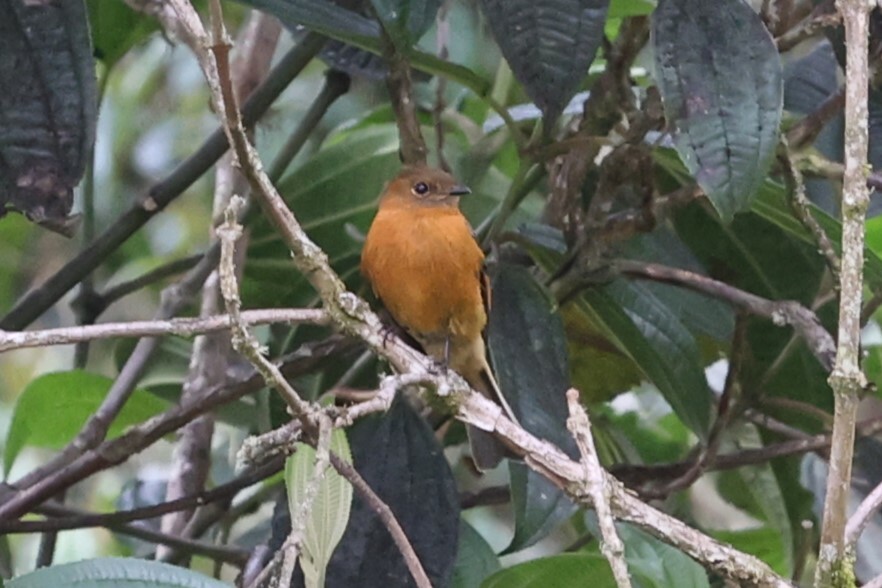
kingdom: Animalia
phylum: Chordata
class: Aves
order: Passeriformes
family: Tyrannidae
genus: Pyrrhomyias
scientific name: Pyrrhomyias cinnamomeus
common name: Cinnamon flycatcher
